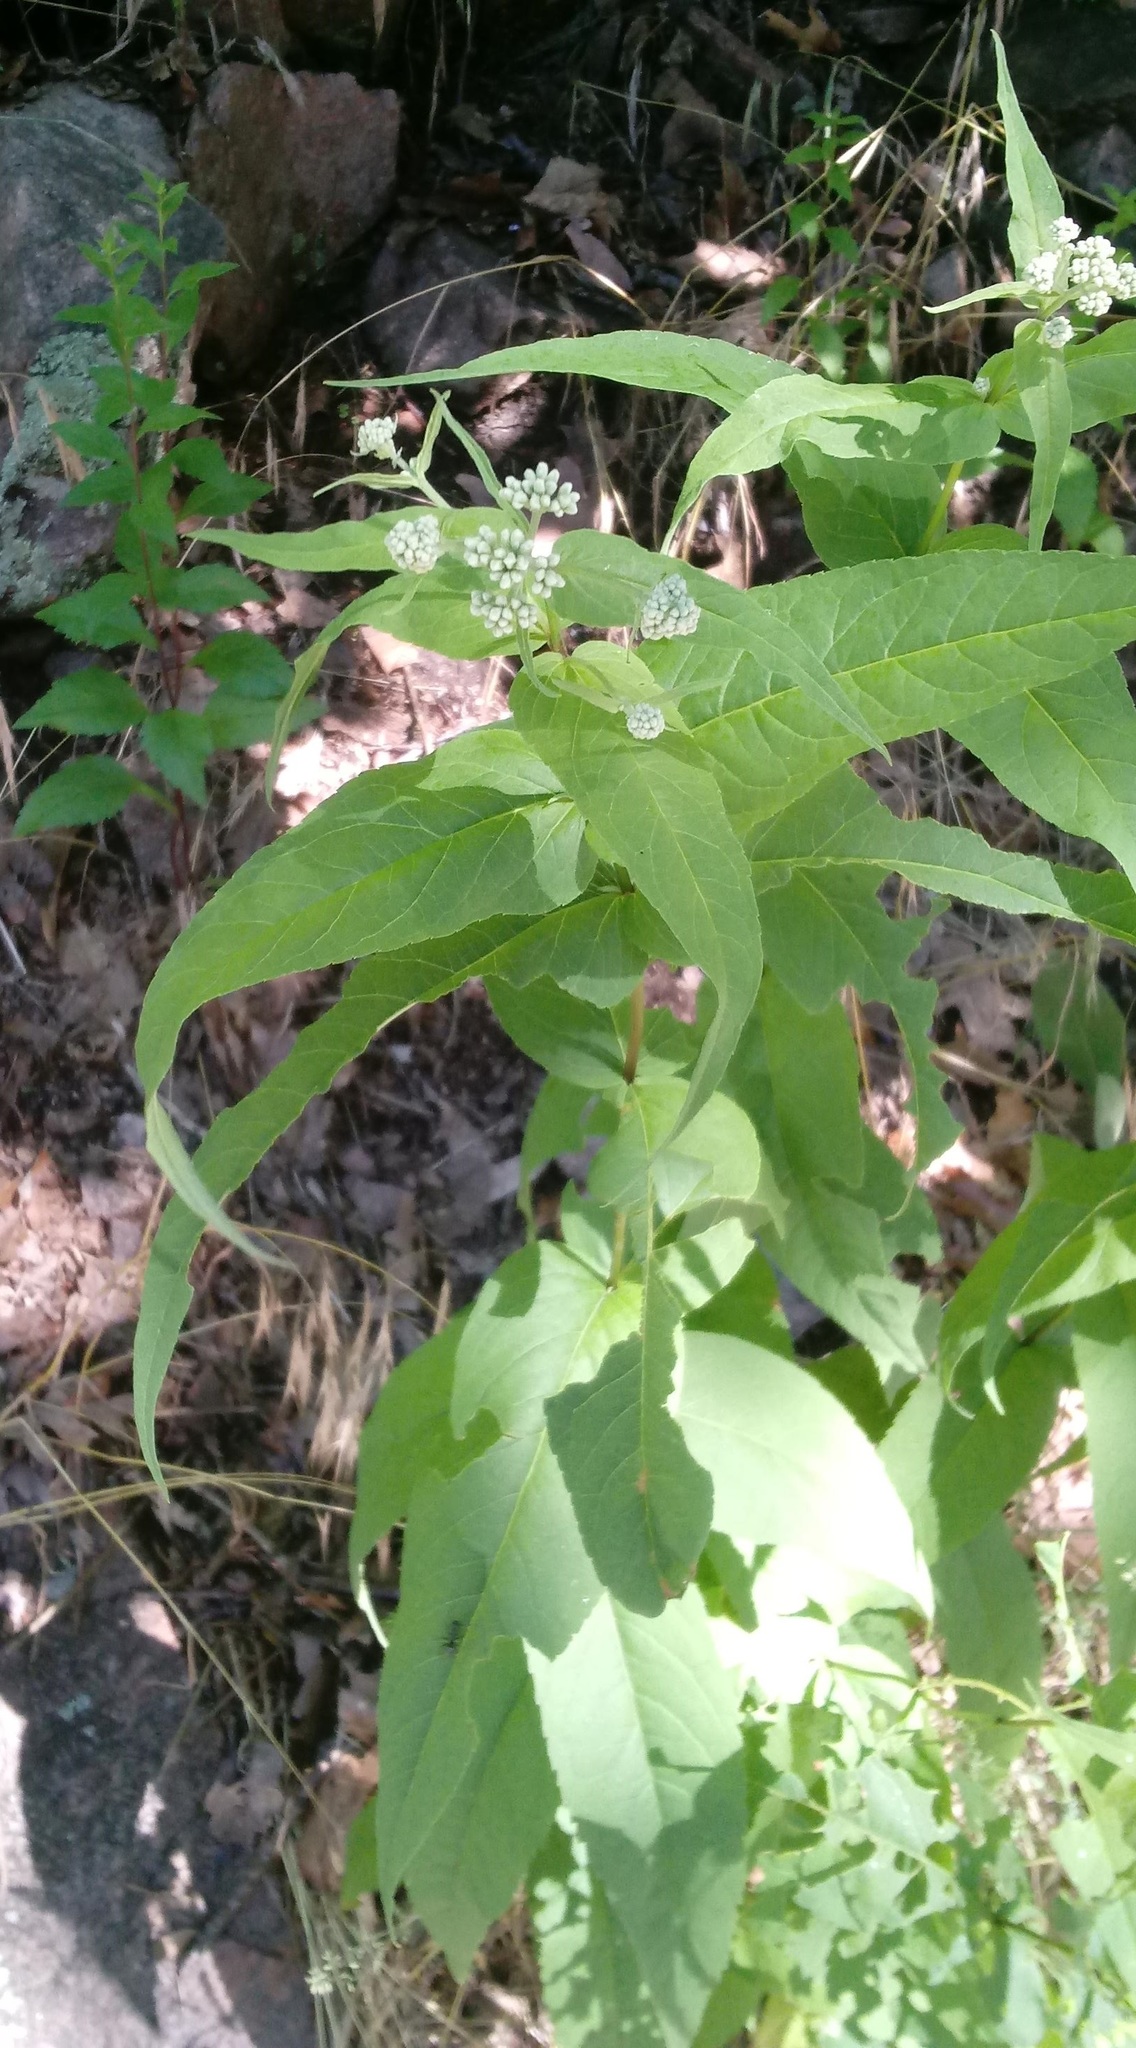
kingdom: Plantae
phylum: Tracheophyta
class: Magnoliopsida
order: Asterales
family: Asteraceae
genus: Eupatorium
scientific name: Eupatorium sessilifolium
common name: Upland boneset
